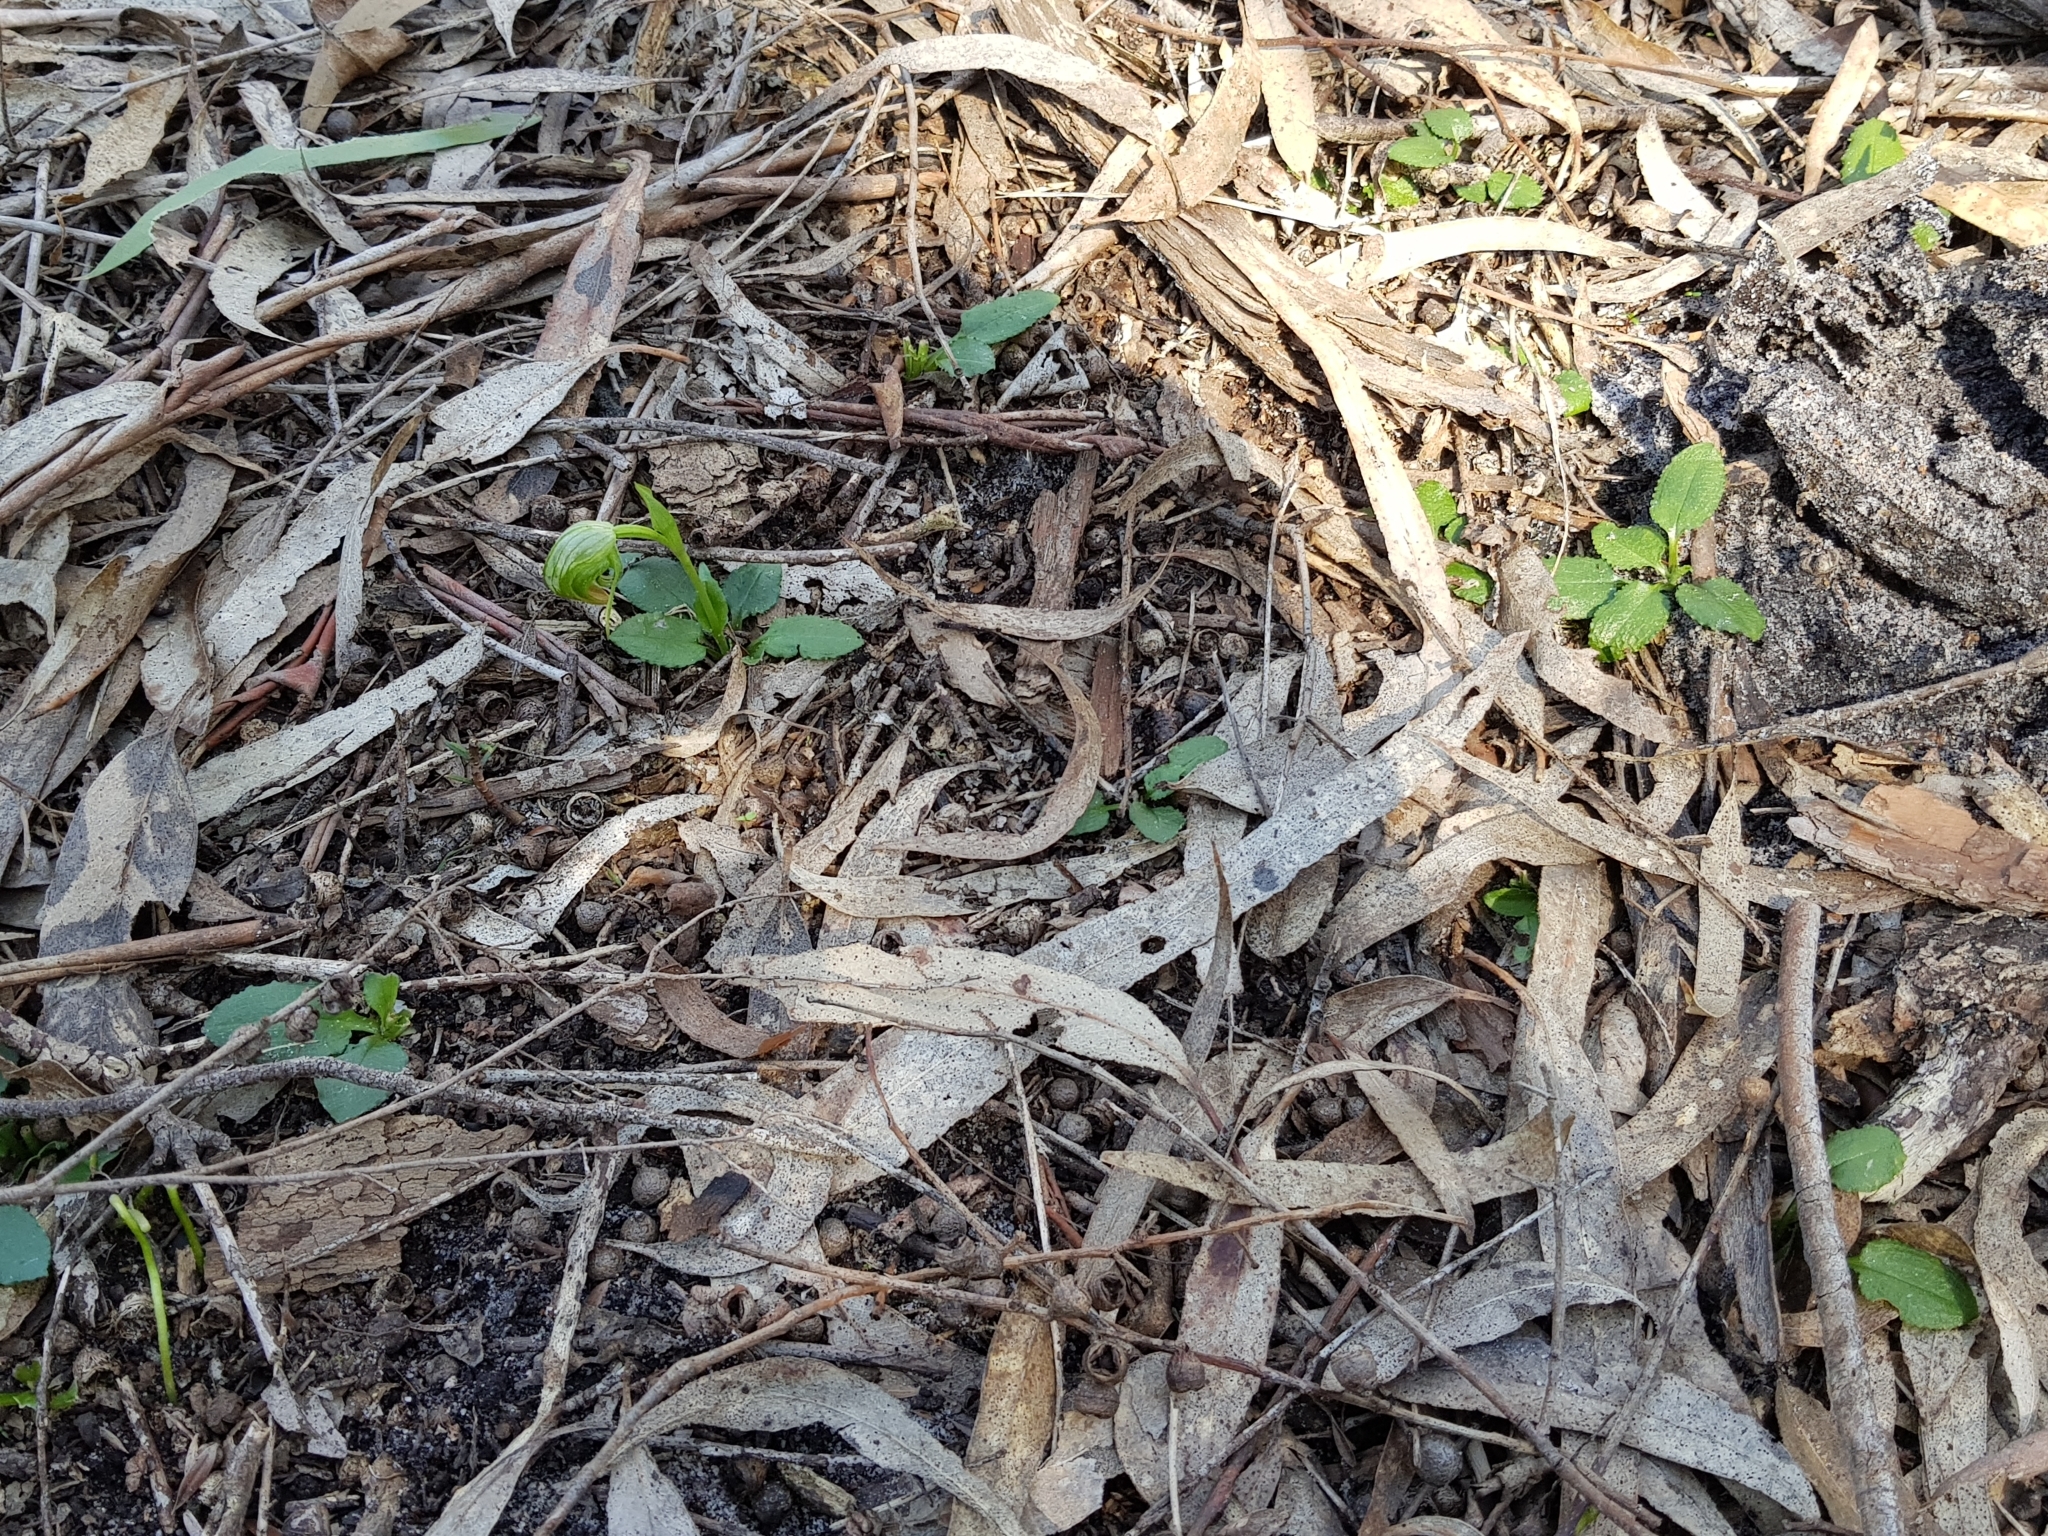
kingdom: Plantae
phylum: Tracheophyta
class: Liliopsida
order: Asparagales
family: Orchidaceae
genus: Pterostylis
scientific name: Pterostylis nutans
